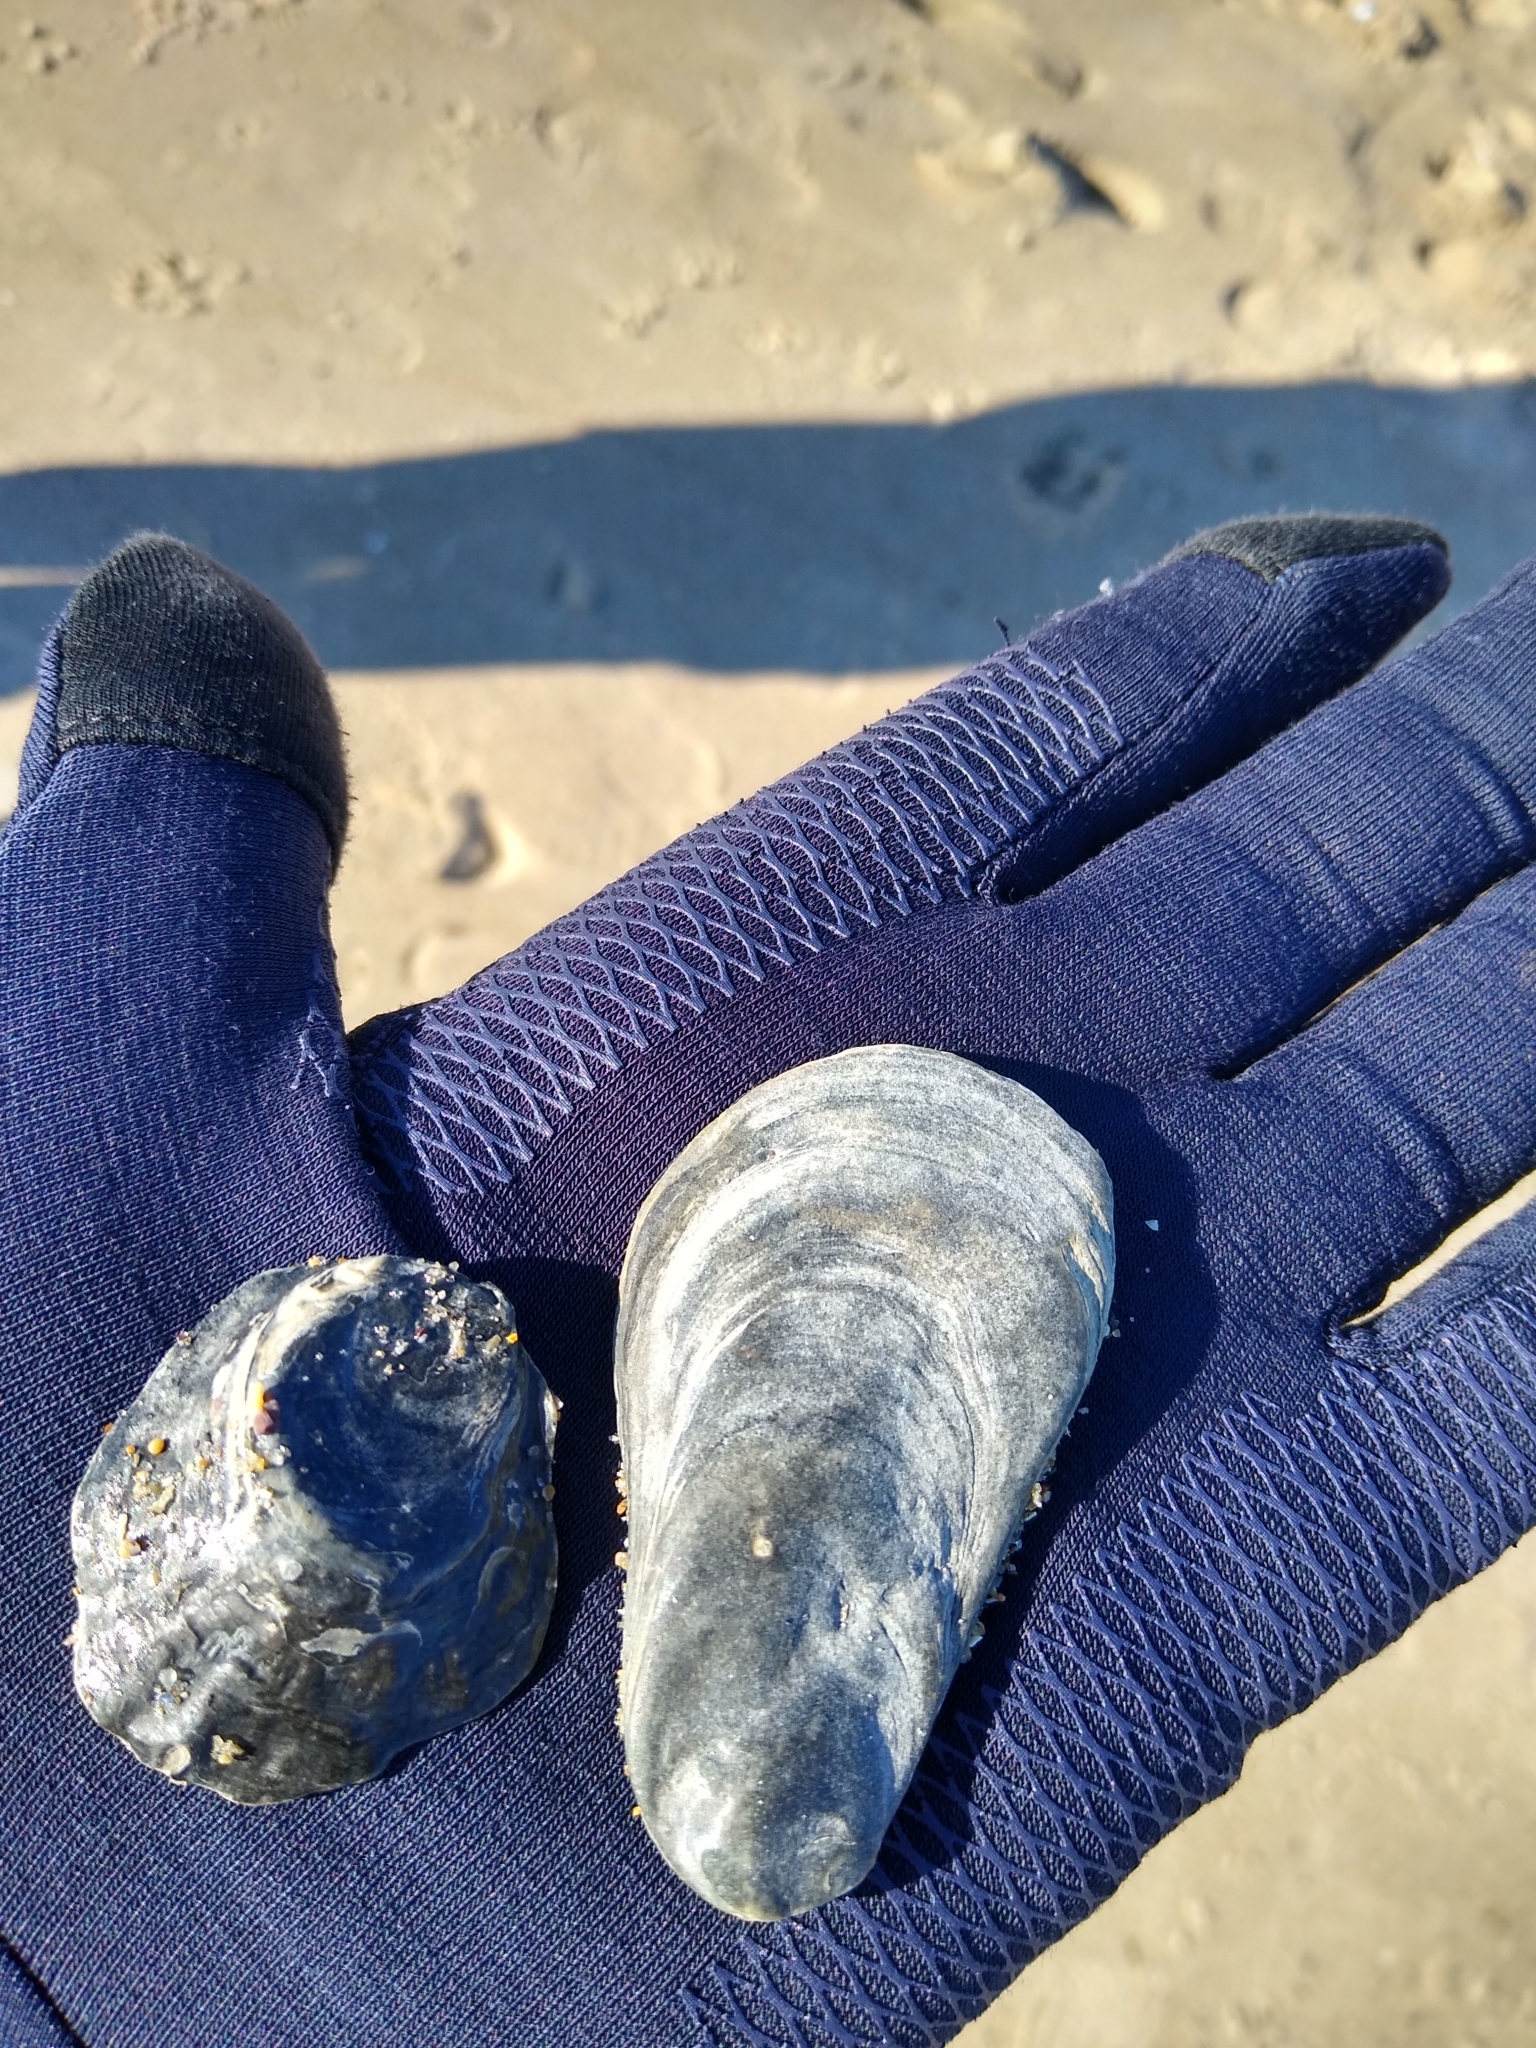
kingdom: Animalia
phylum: Mollusca
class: Bivalvia
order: Ostreida
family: Ostreidae
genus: Ostrea
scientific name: Ostrea edulis
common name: Flat oyster
